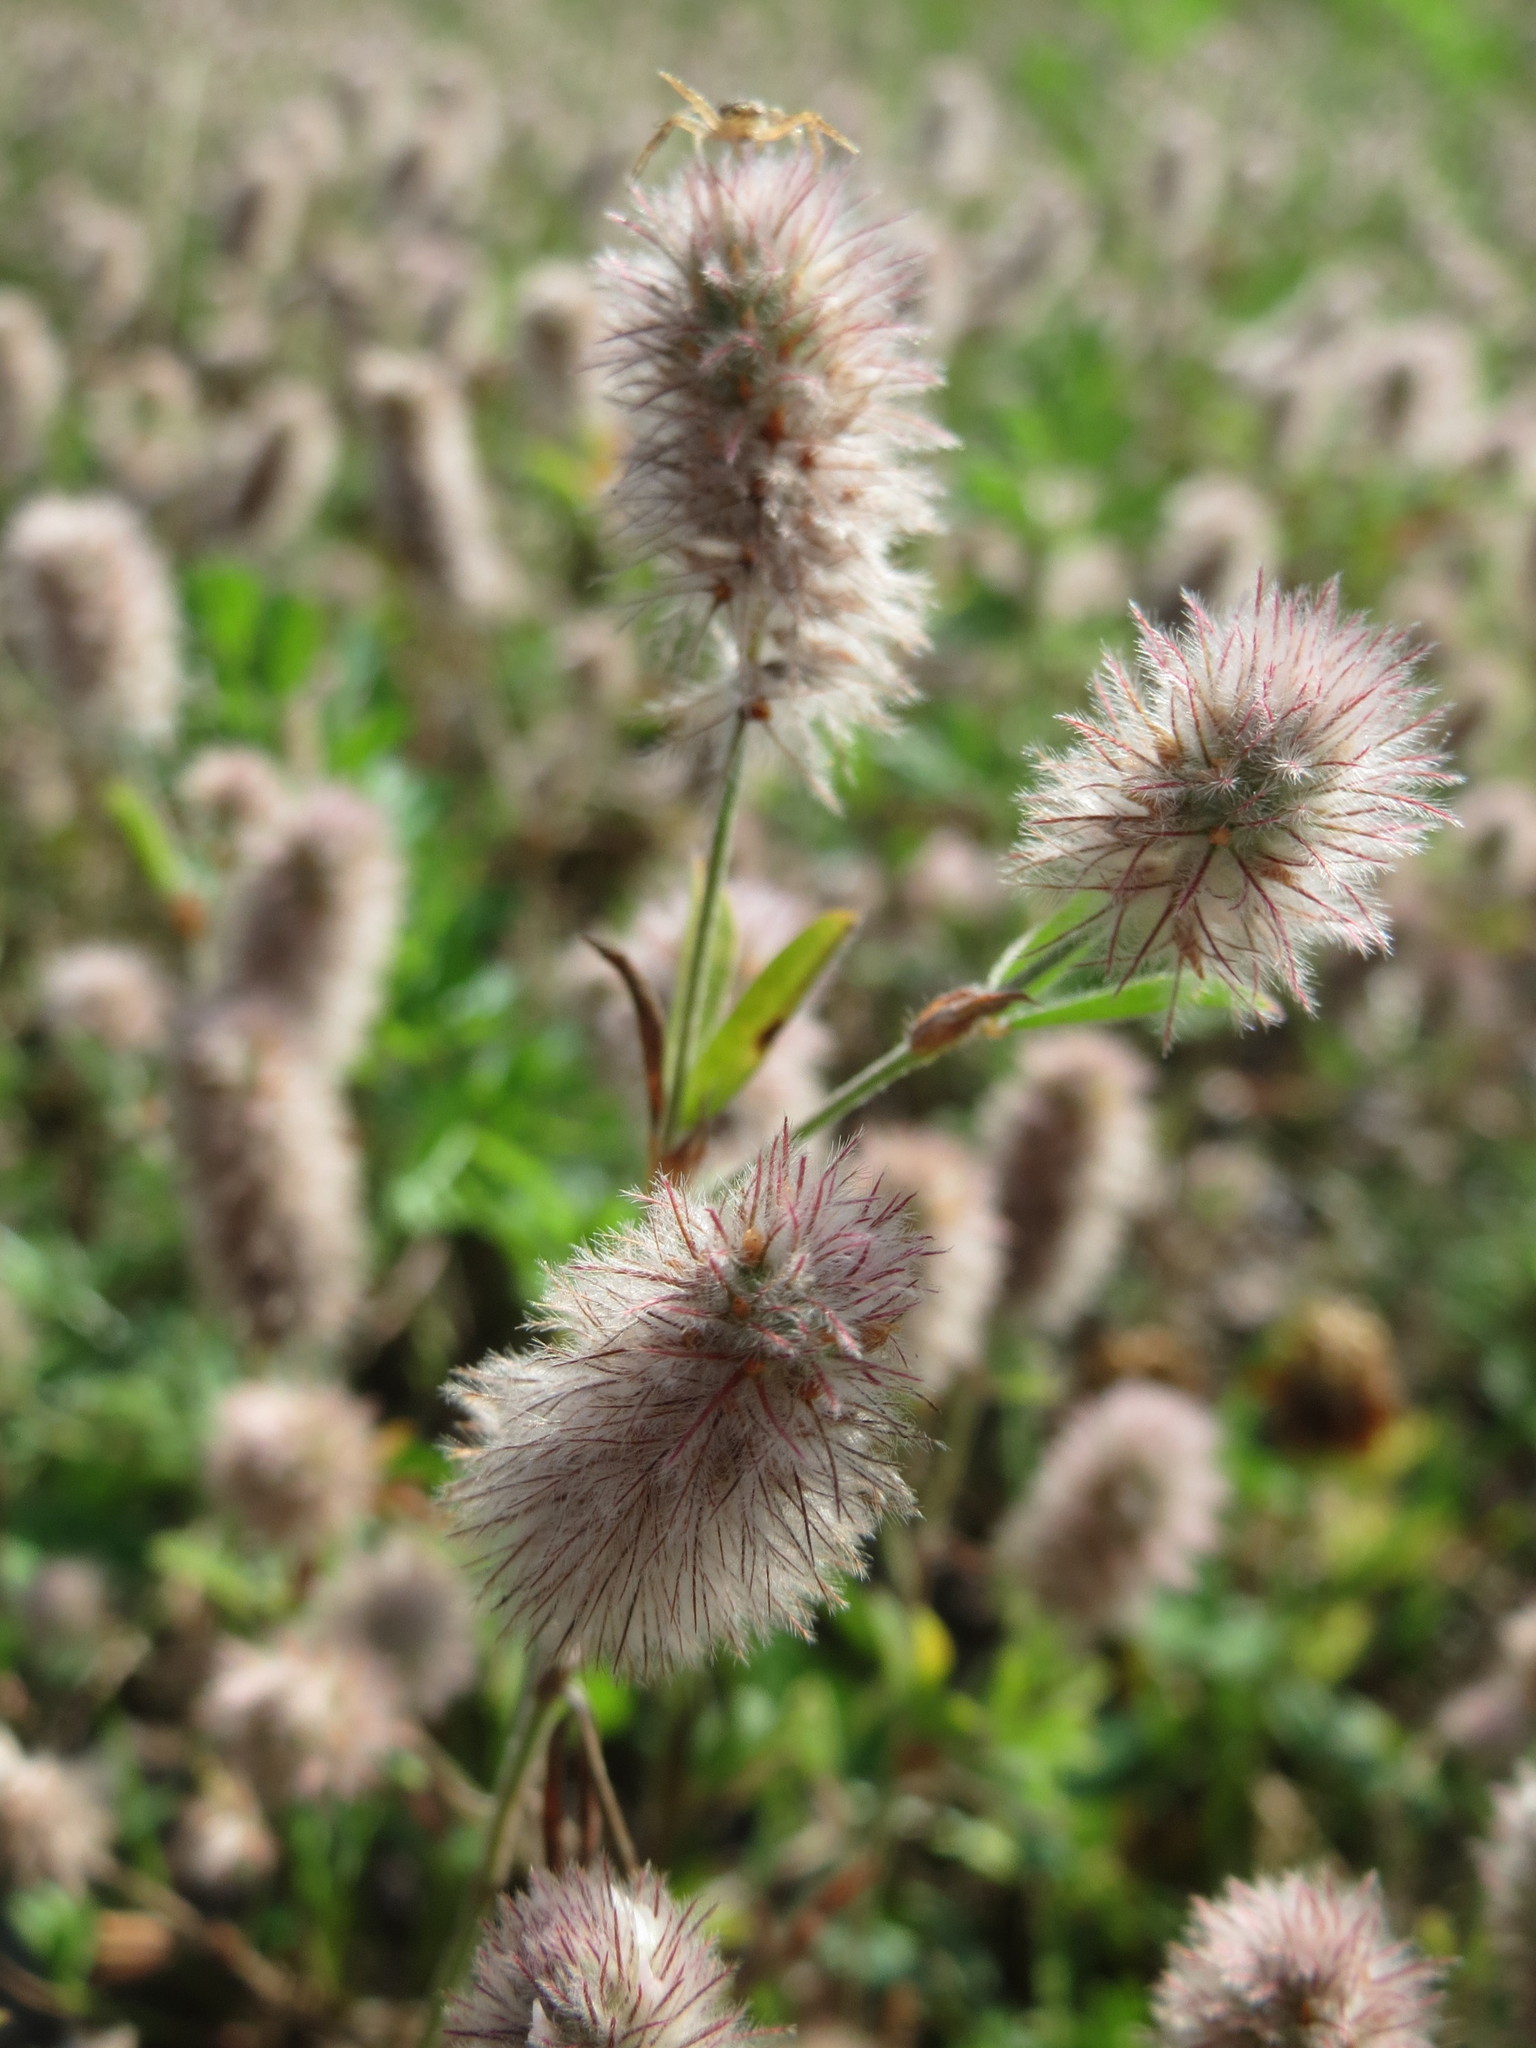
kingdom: Plantae
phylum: Tracheophyta
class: Magnoliopsida
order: Fabales
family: Fabaceae
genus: Trifolium
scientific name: Trifolium arvense
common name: Hare's-foot clover
